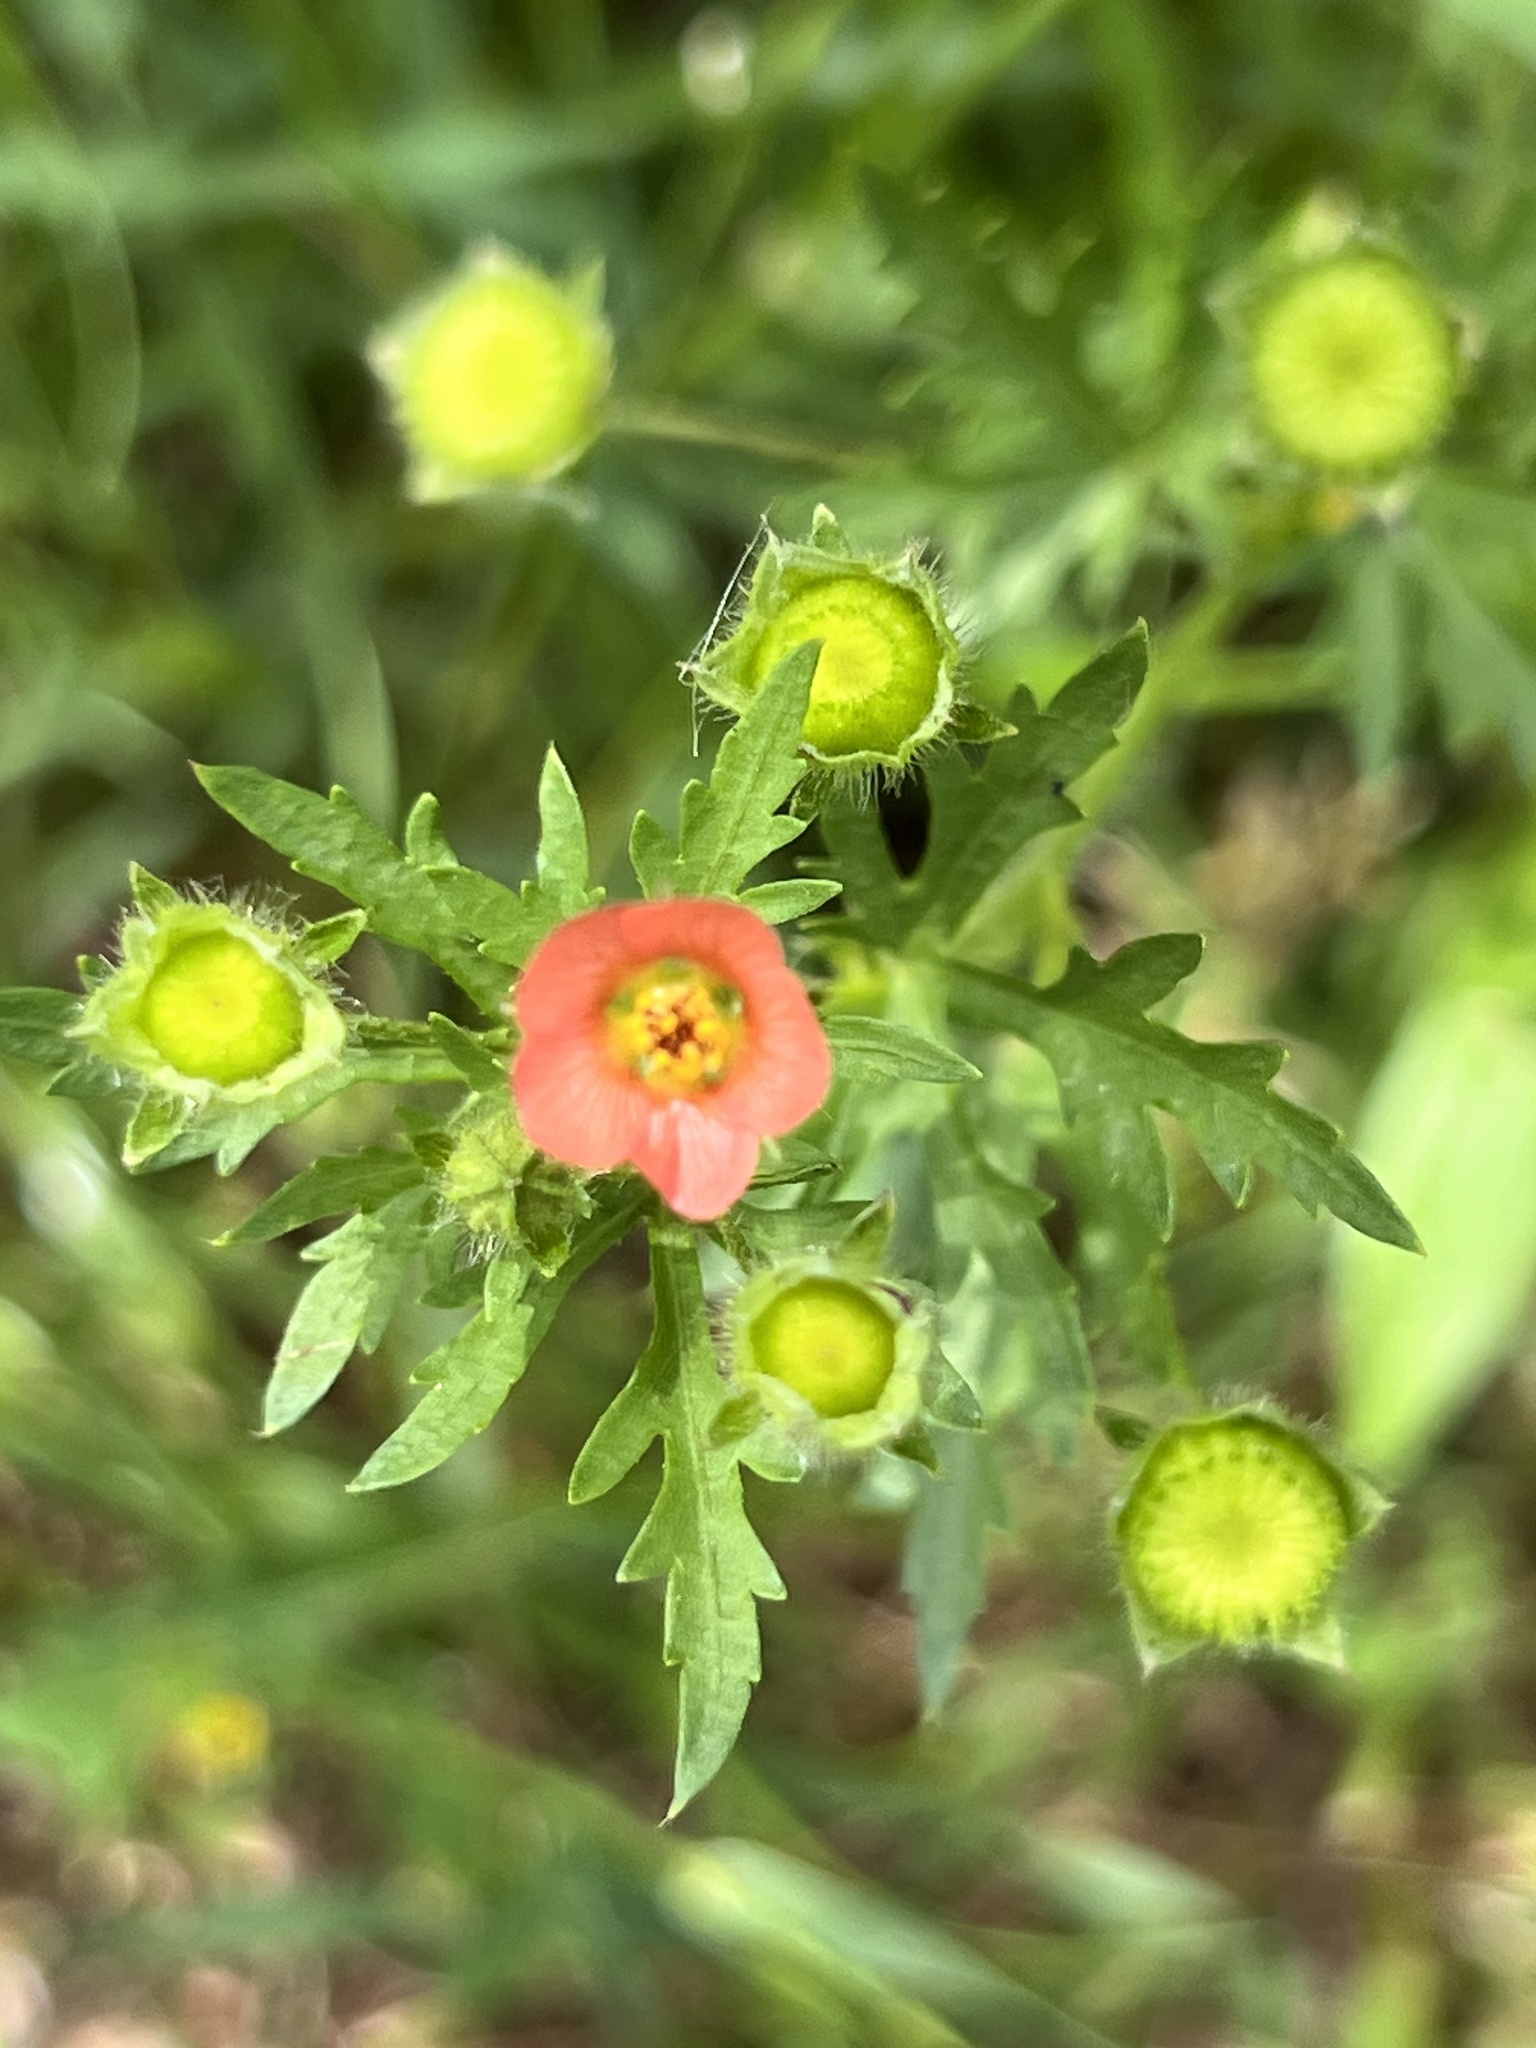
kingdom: Plantae
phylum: Tracheophyta
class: Magnoliopsida
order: Malvales
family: Malvaceae
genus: Modiola
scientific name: Modiola caroliniana
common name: Carolina bristlemallow
